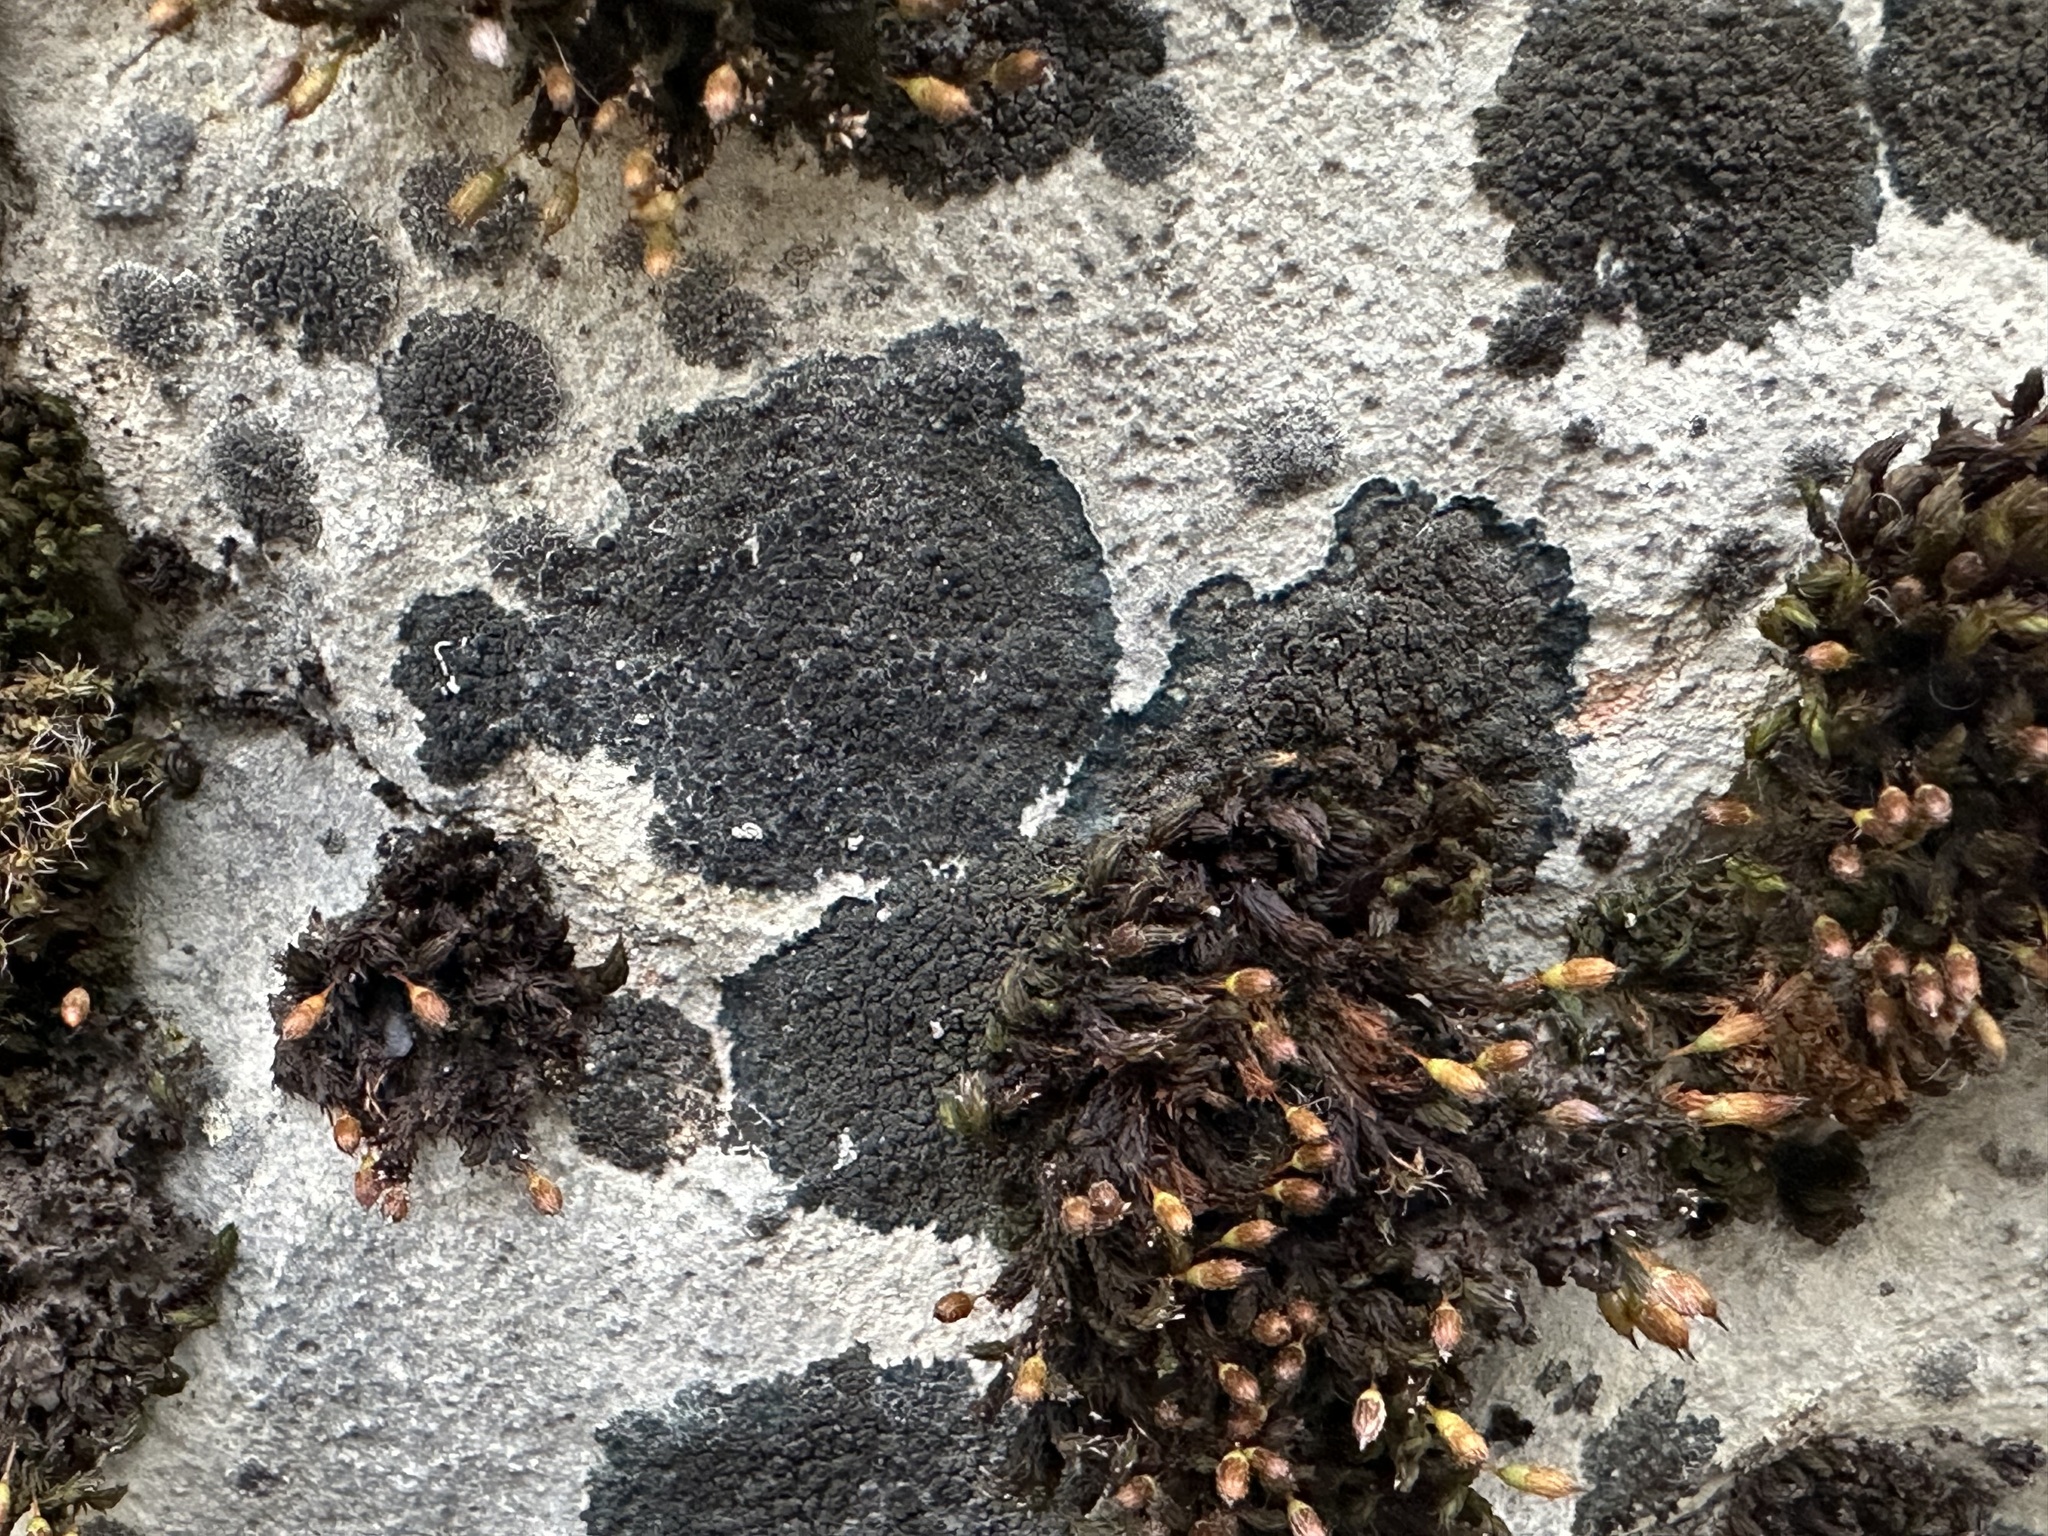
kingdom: Fungi
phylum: Ascomycota
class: Lecanoromycetes
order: Peltigerales
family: Placynthiaceae
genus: Placynthium
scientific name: Placynthium nigrum
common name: Blackthread lichen
